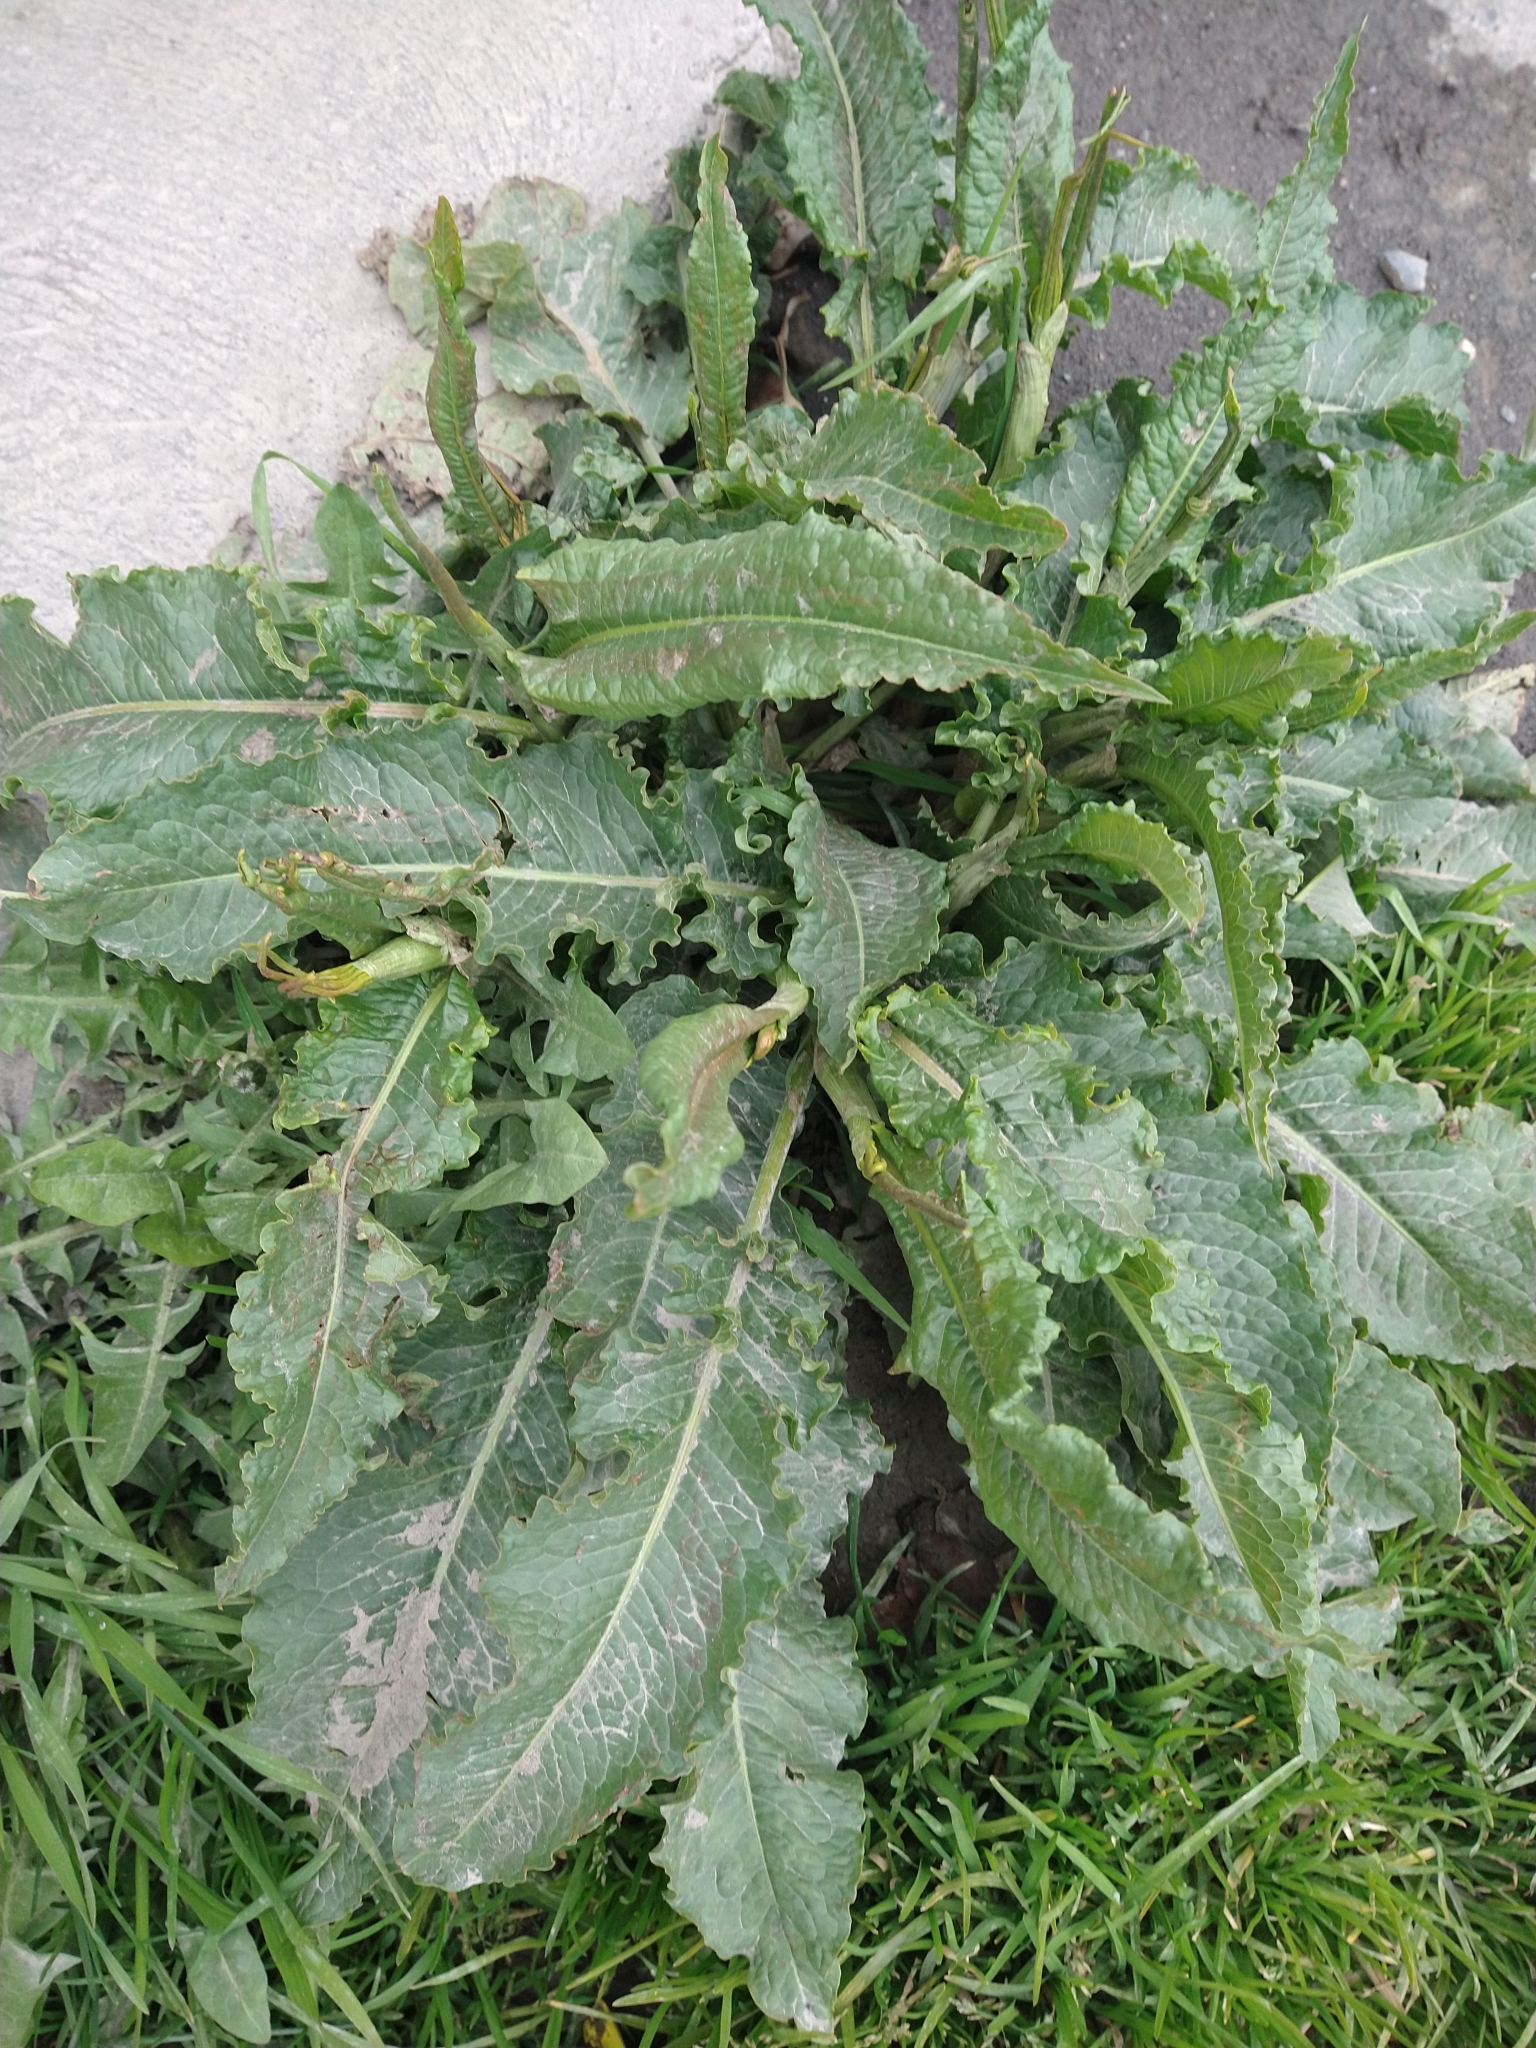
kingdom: Plantae
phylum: Tracheophyta
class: Magnoliopsida
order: Caryophyllales
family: Polygonaceae
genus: Rumex
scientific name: Rumex crispus
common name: Curled dock
